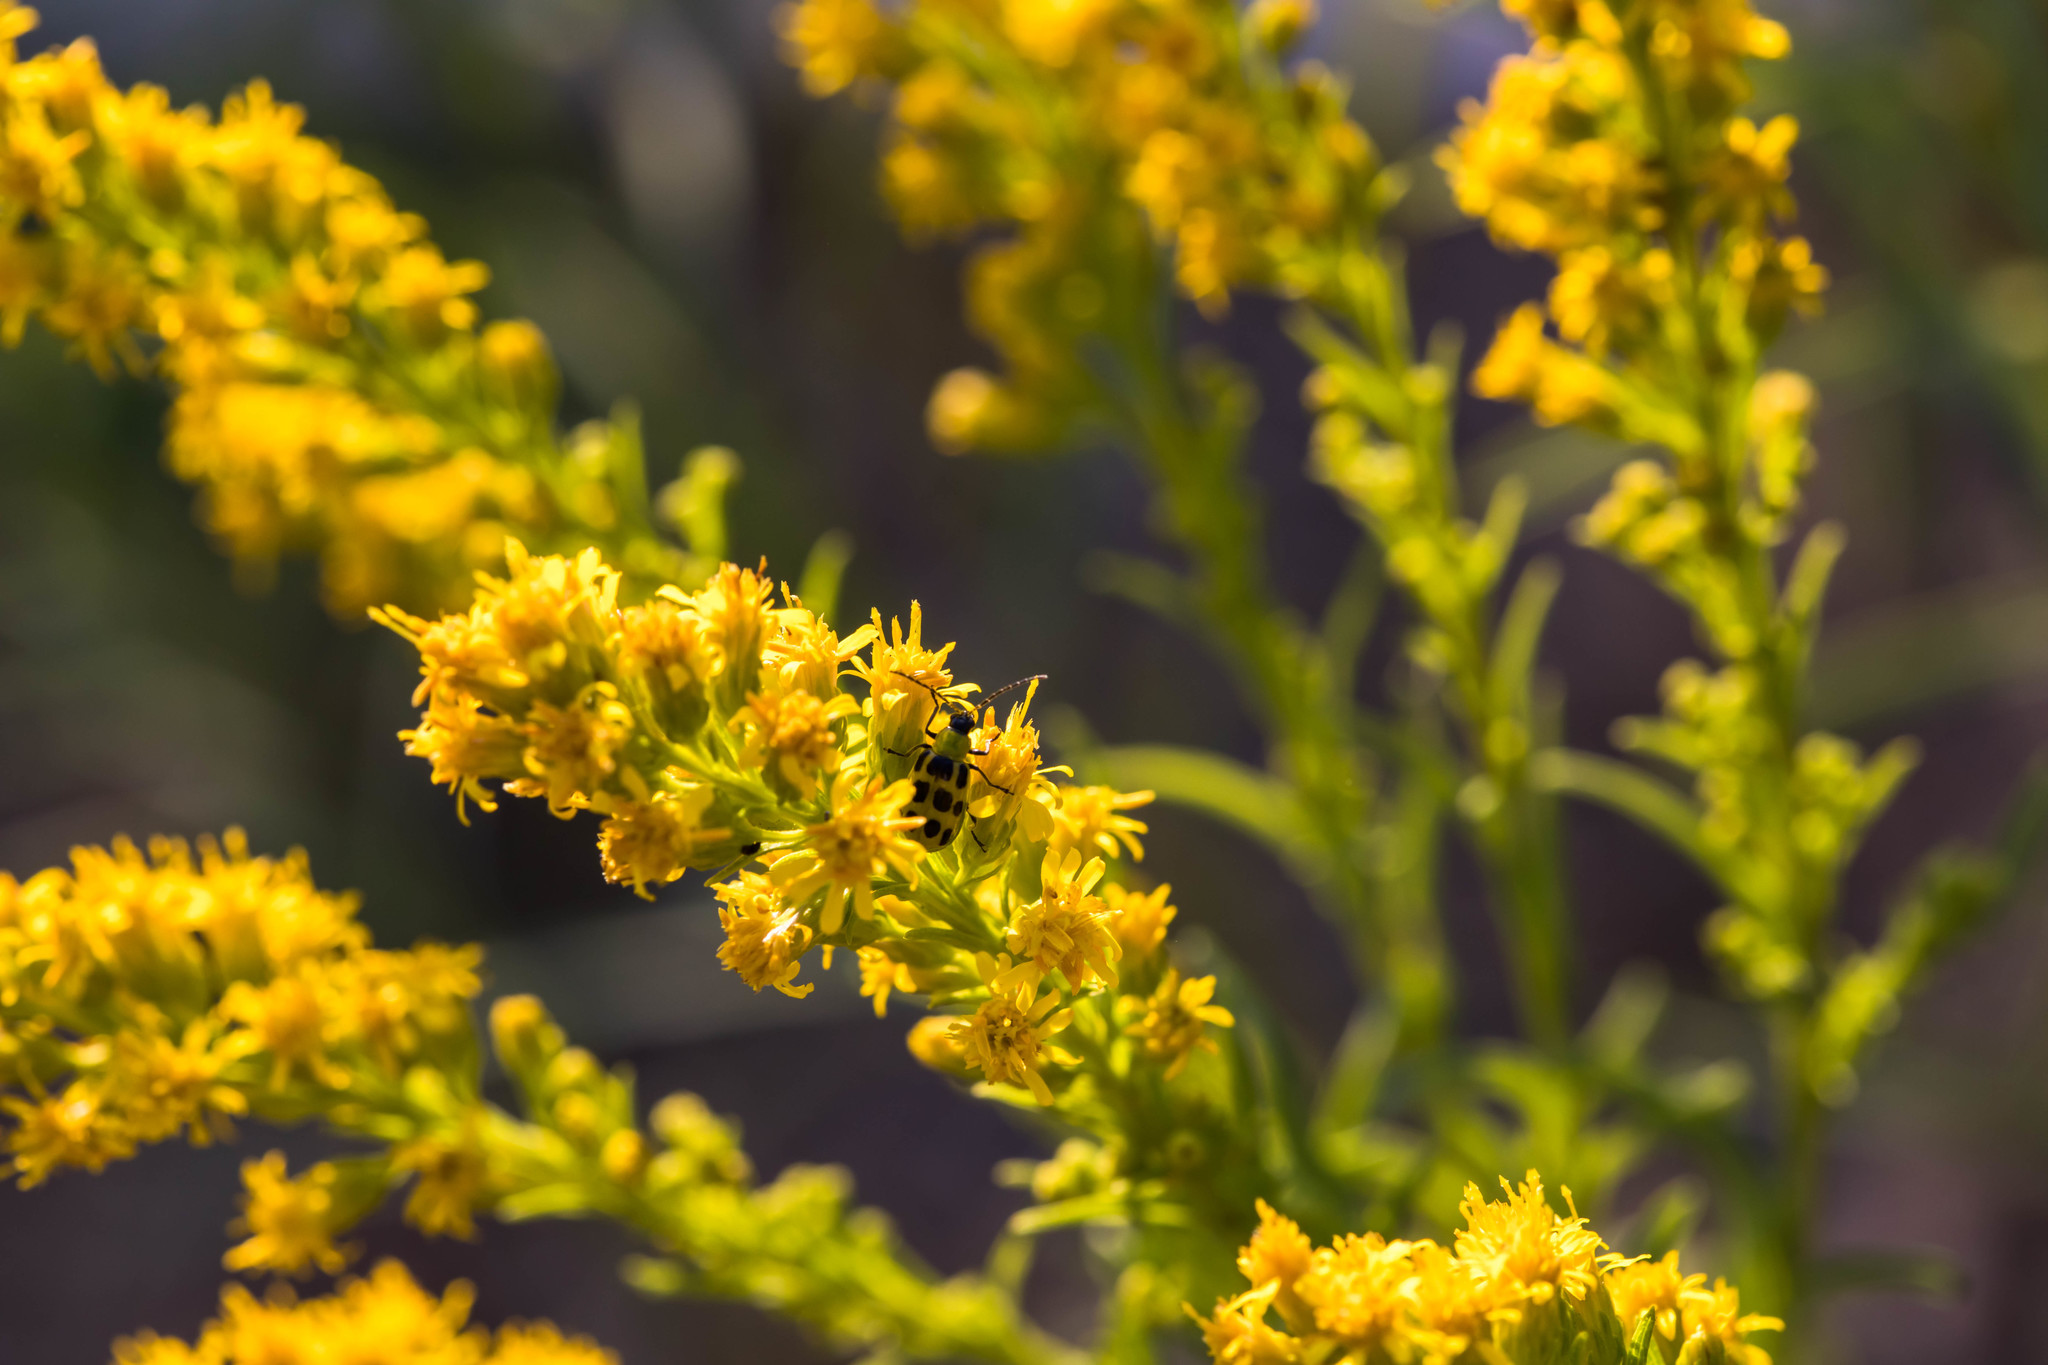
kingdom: Animalia
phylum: Arthropoda
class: Insecta
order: Coleoptera
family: Chrysomelidae
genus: Diabrotica
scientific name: Diabrotica undecimpunctata
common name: Spotted cucumber beetle
